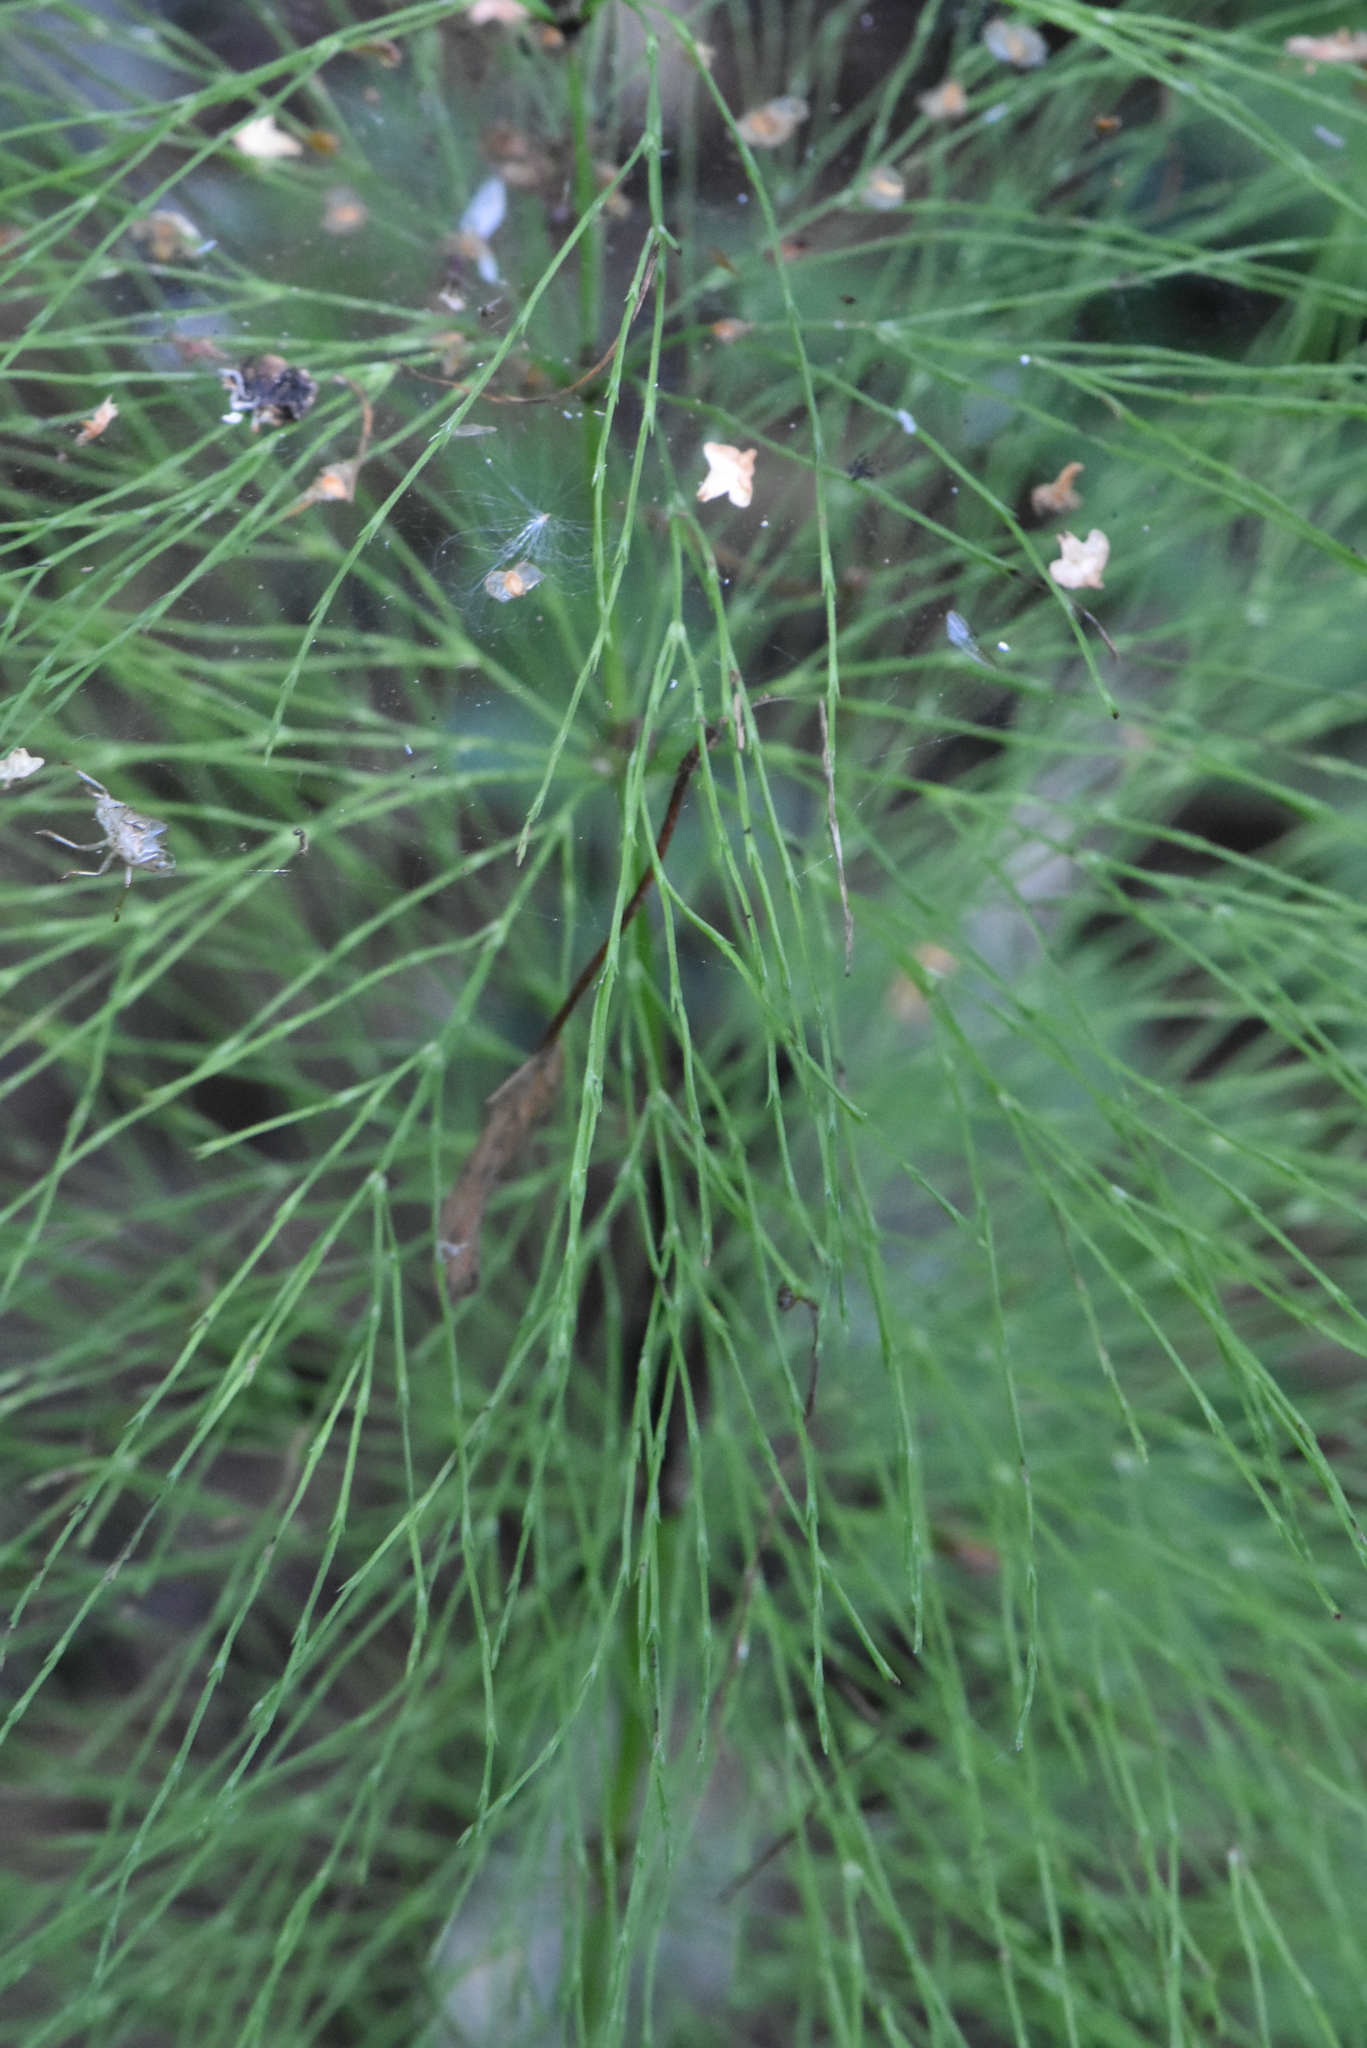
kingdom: Plantae
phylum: Tracheophyta
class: Polypodiopsida
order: Equisetales
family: Equisetaceae
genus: Equisetum
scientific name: Equisetum sylvaticum
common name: Wood horsetail
